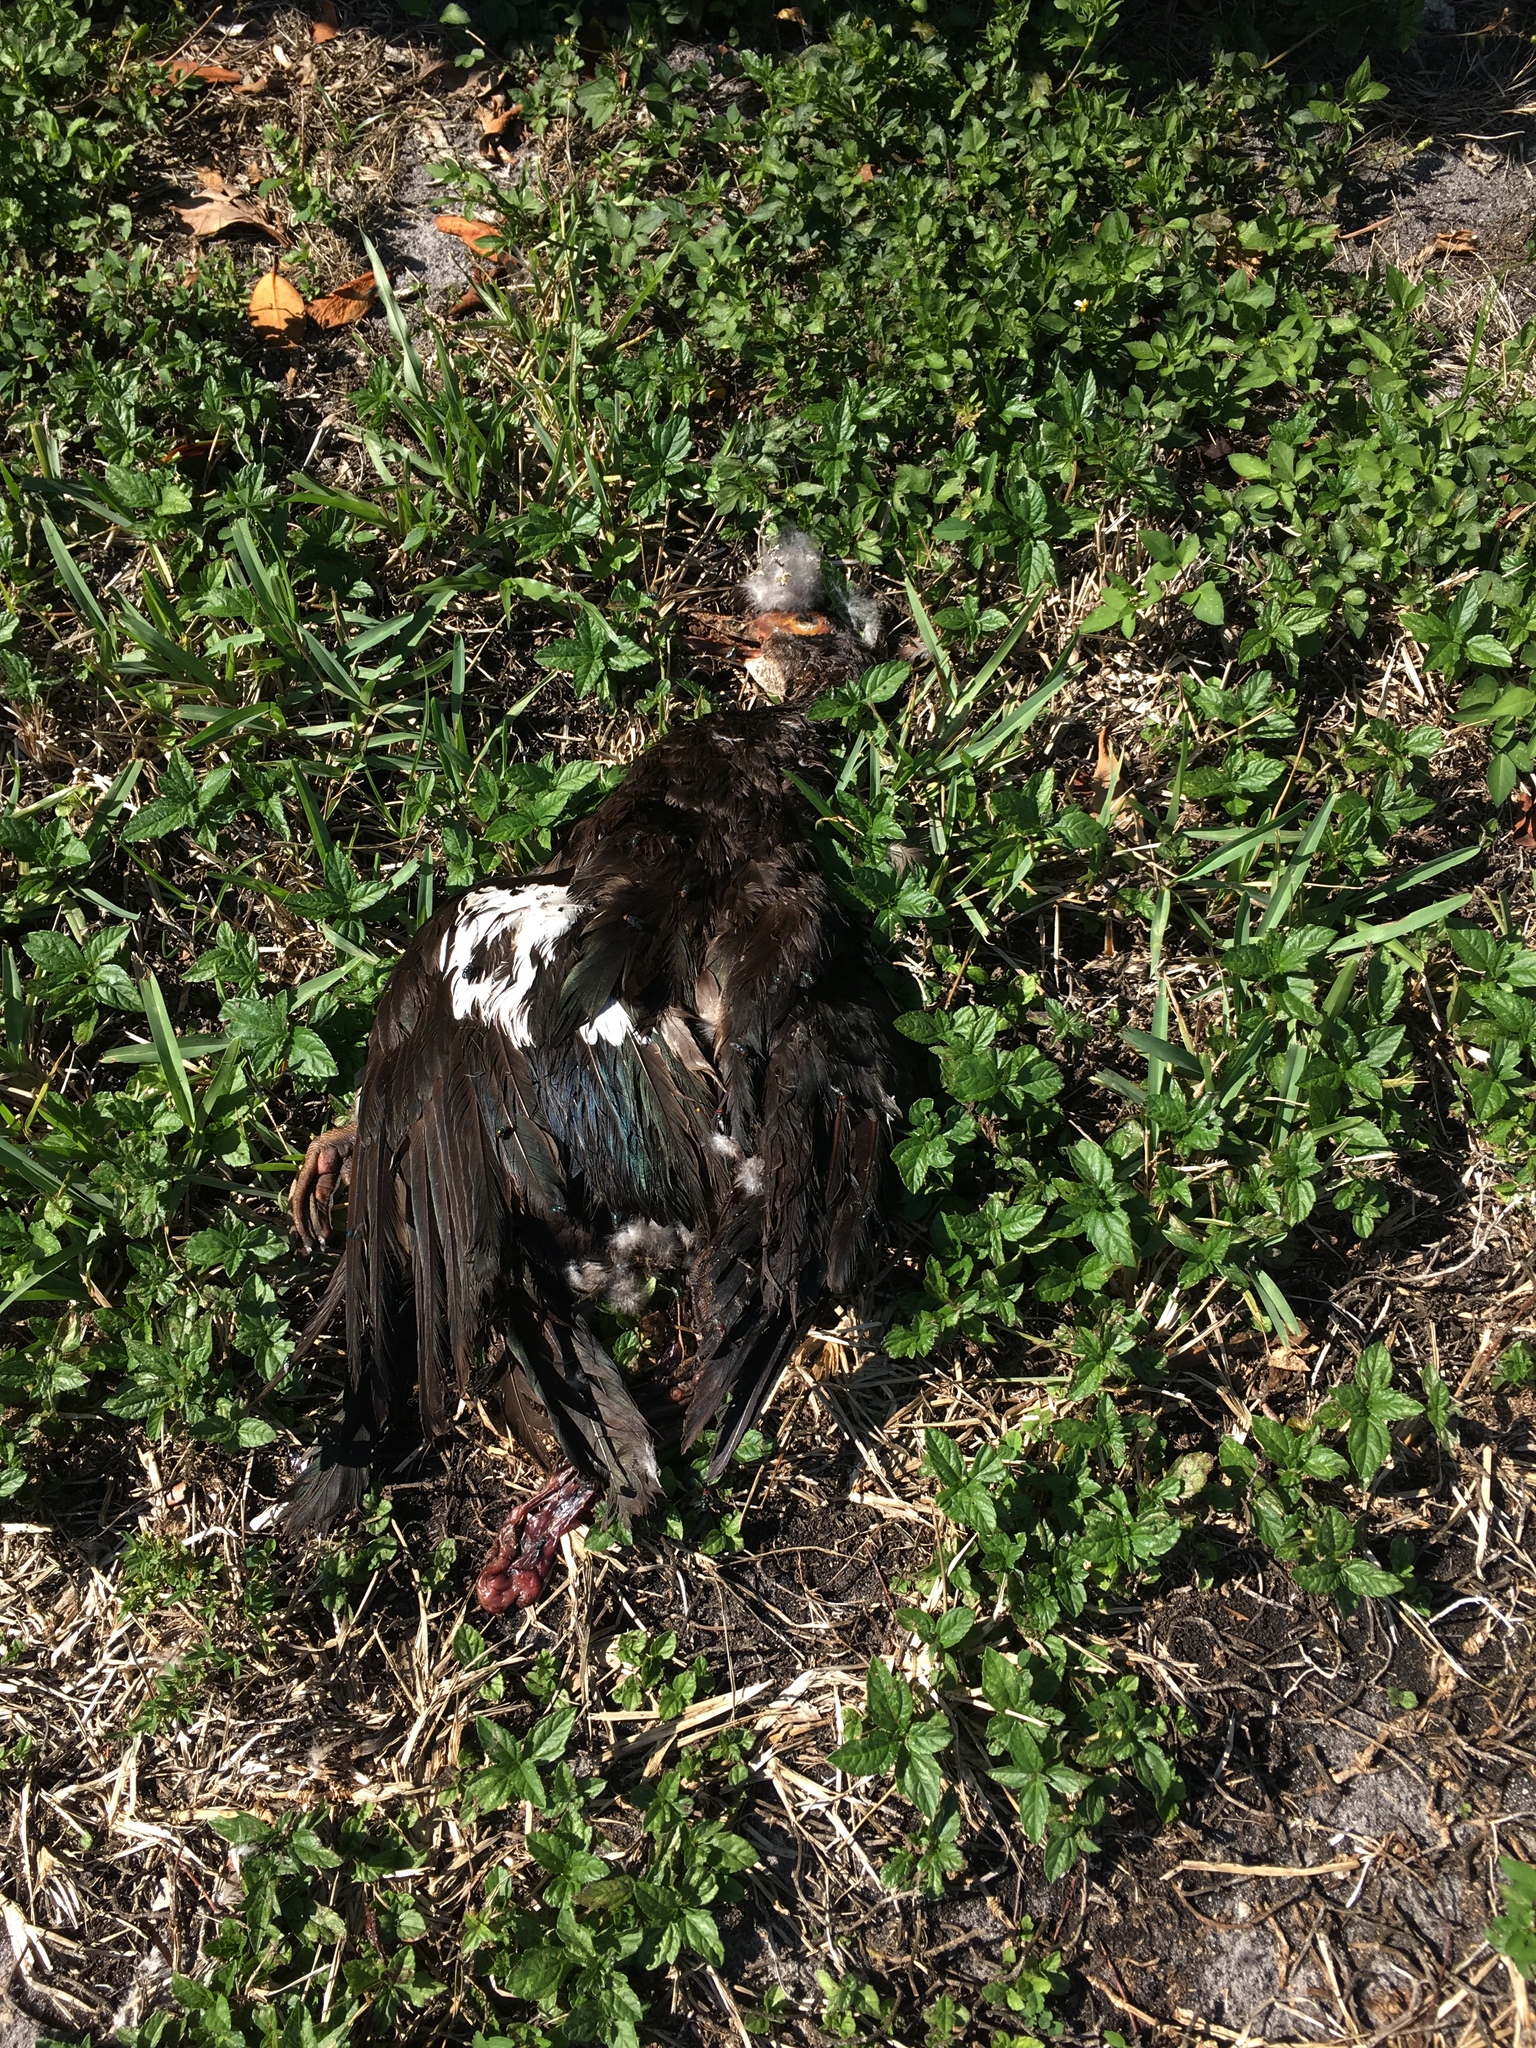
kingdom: Animalia
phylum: Chordata
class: Aves
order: Anseriformes
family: Anatidae
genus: Cairina
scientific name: Cairina moschata
